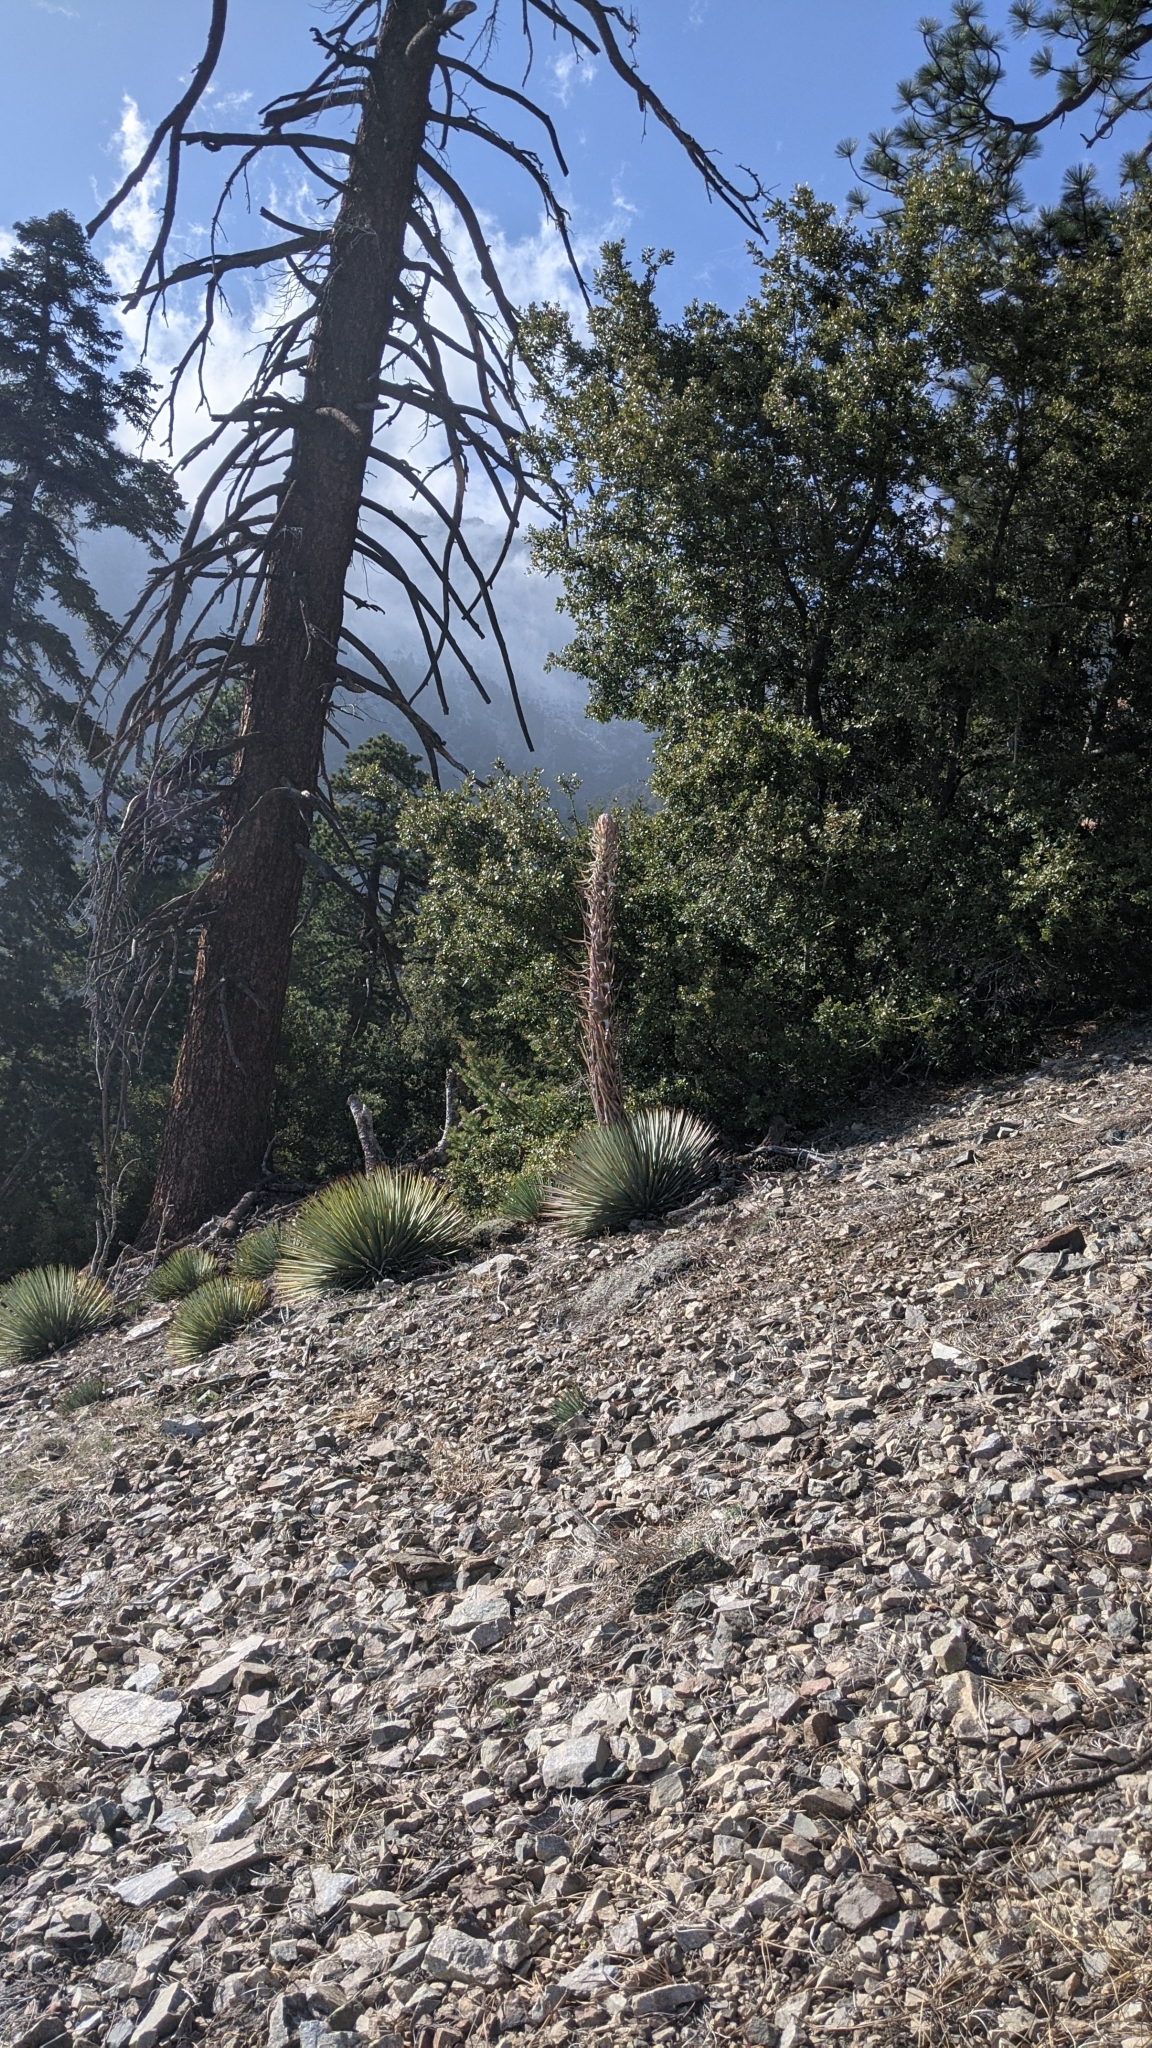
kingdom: Plantae
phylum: Tracheophyta
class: Liliopsida
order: Asparagales
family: Asparagaceae
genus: Hesperoyucca
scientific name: Hesperoyucca whipplei
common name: Our lord's-candle
